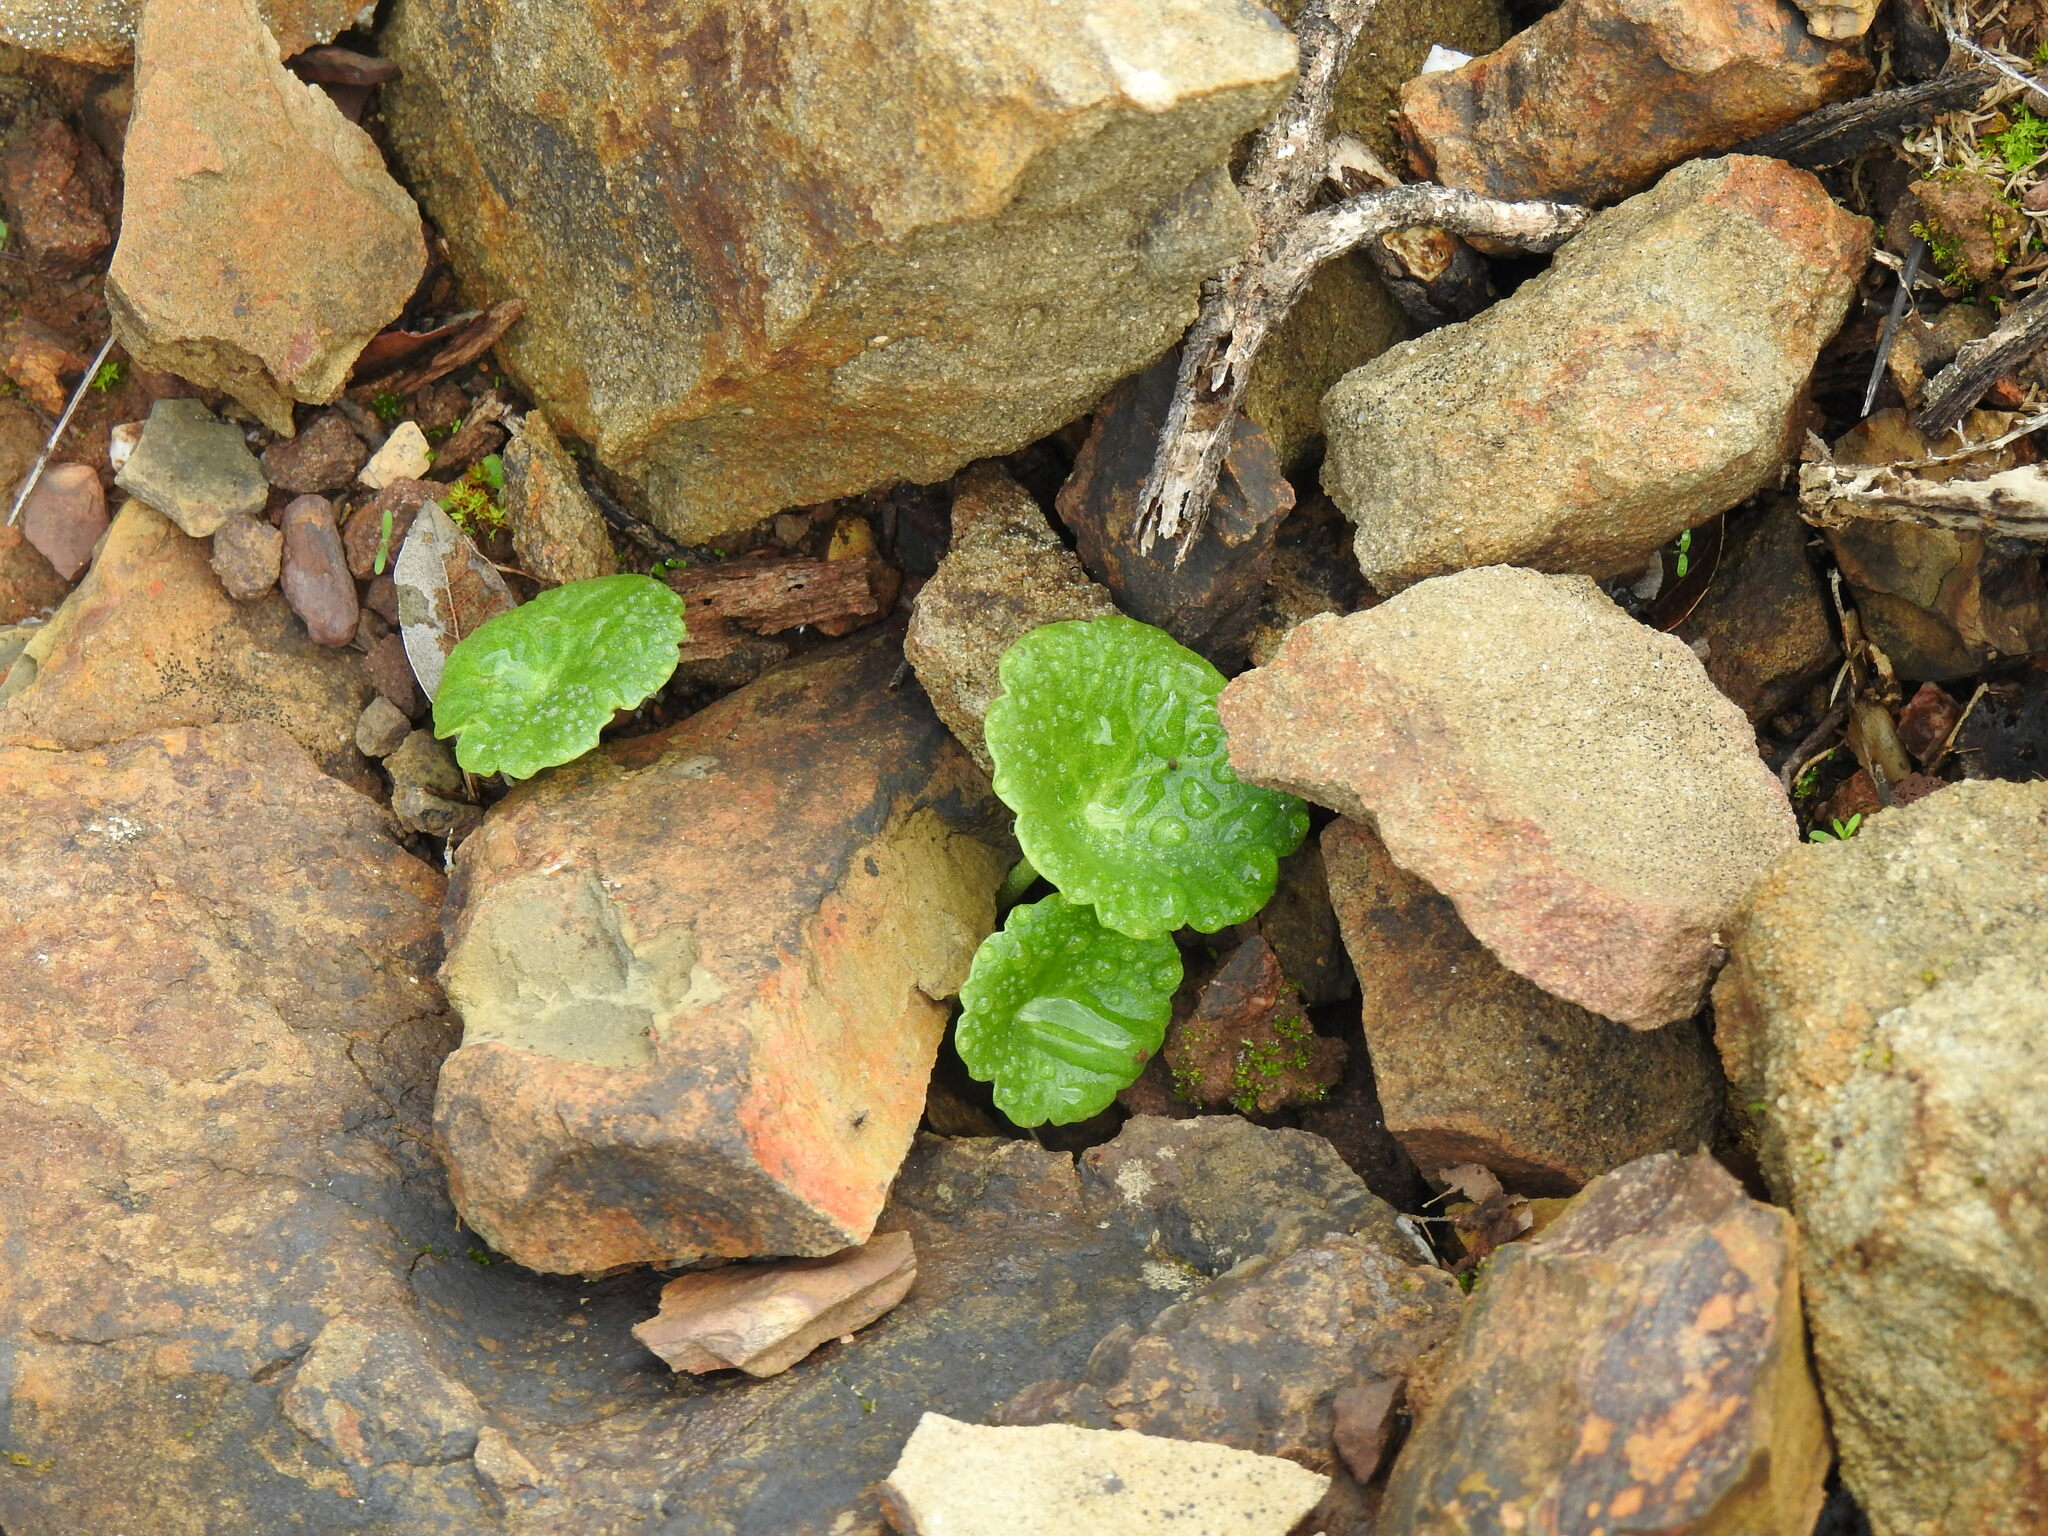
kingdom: Plantae
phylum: Tracheophyta
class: Magnoliopsida
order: Saxifragales
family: Crassulaceae
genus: Umbilicus
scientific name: Umbilicus rupestris
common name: Navelwort
